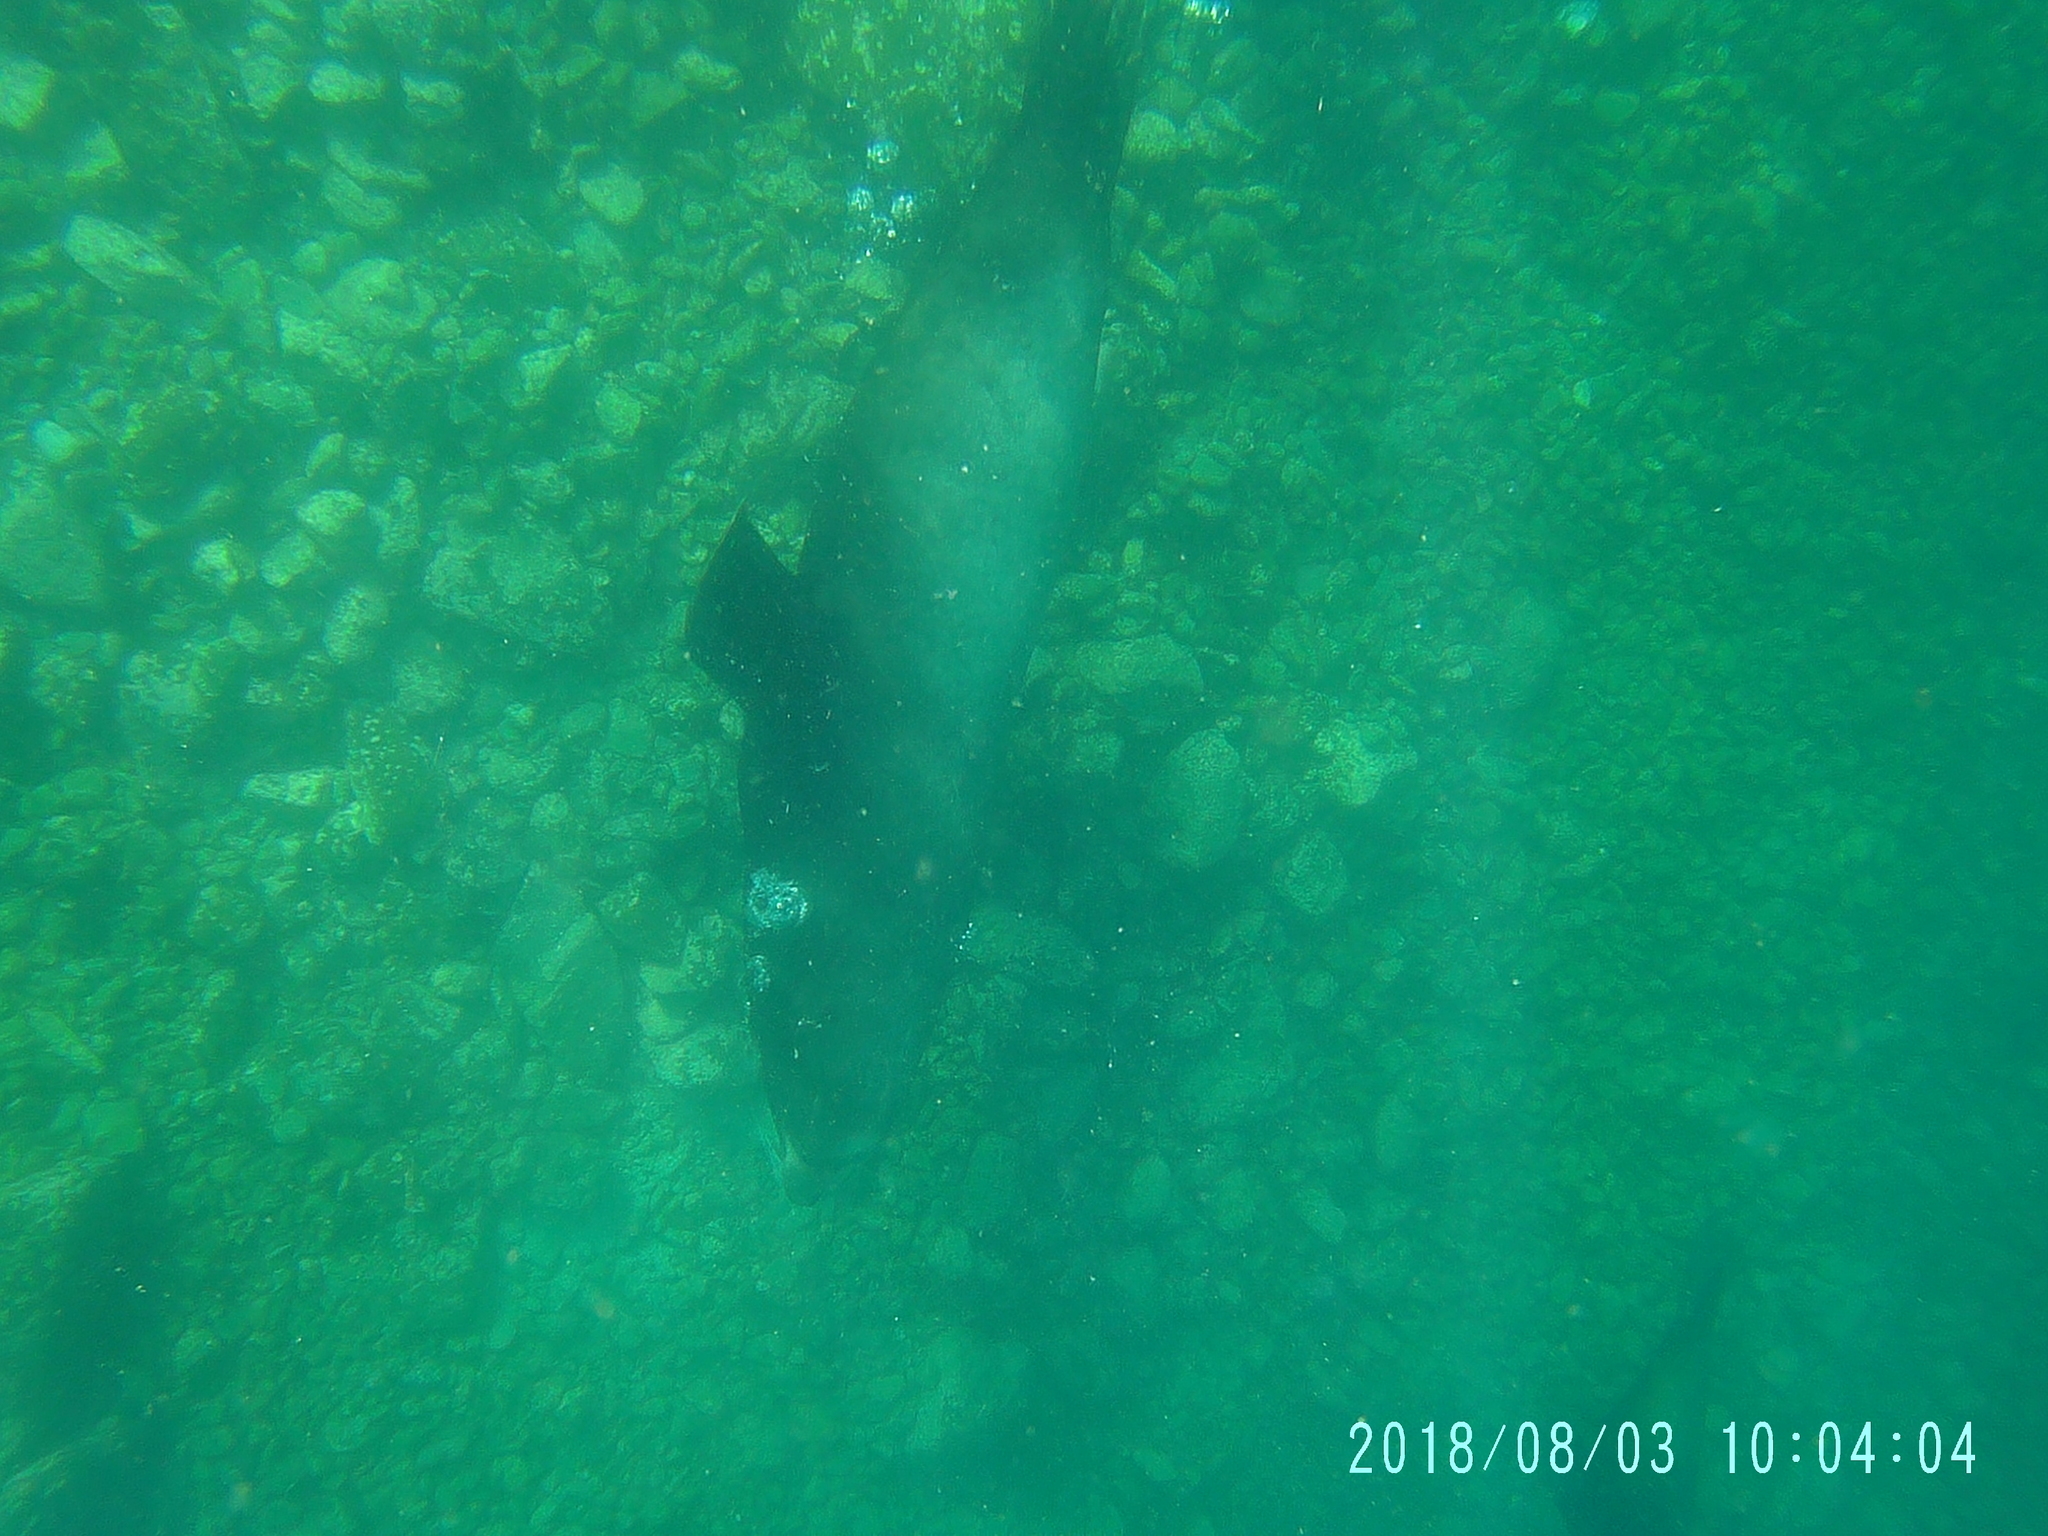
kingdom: Animalia
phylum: Chordata
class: Mammalia
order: Carnivora
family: Otariidae
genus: Zalophus
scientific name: Zalophus californianus
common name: California sea lion
